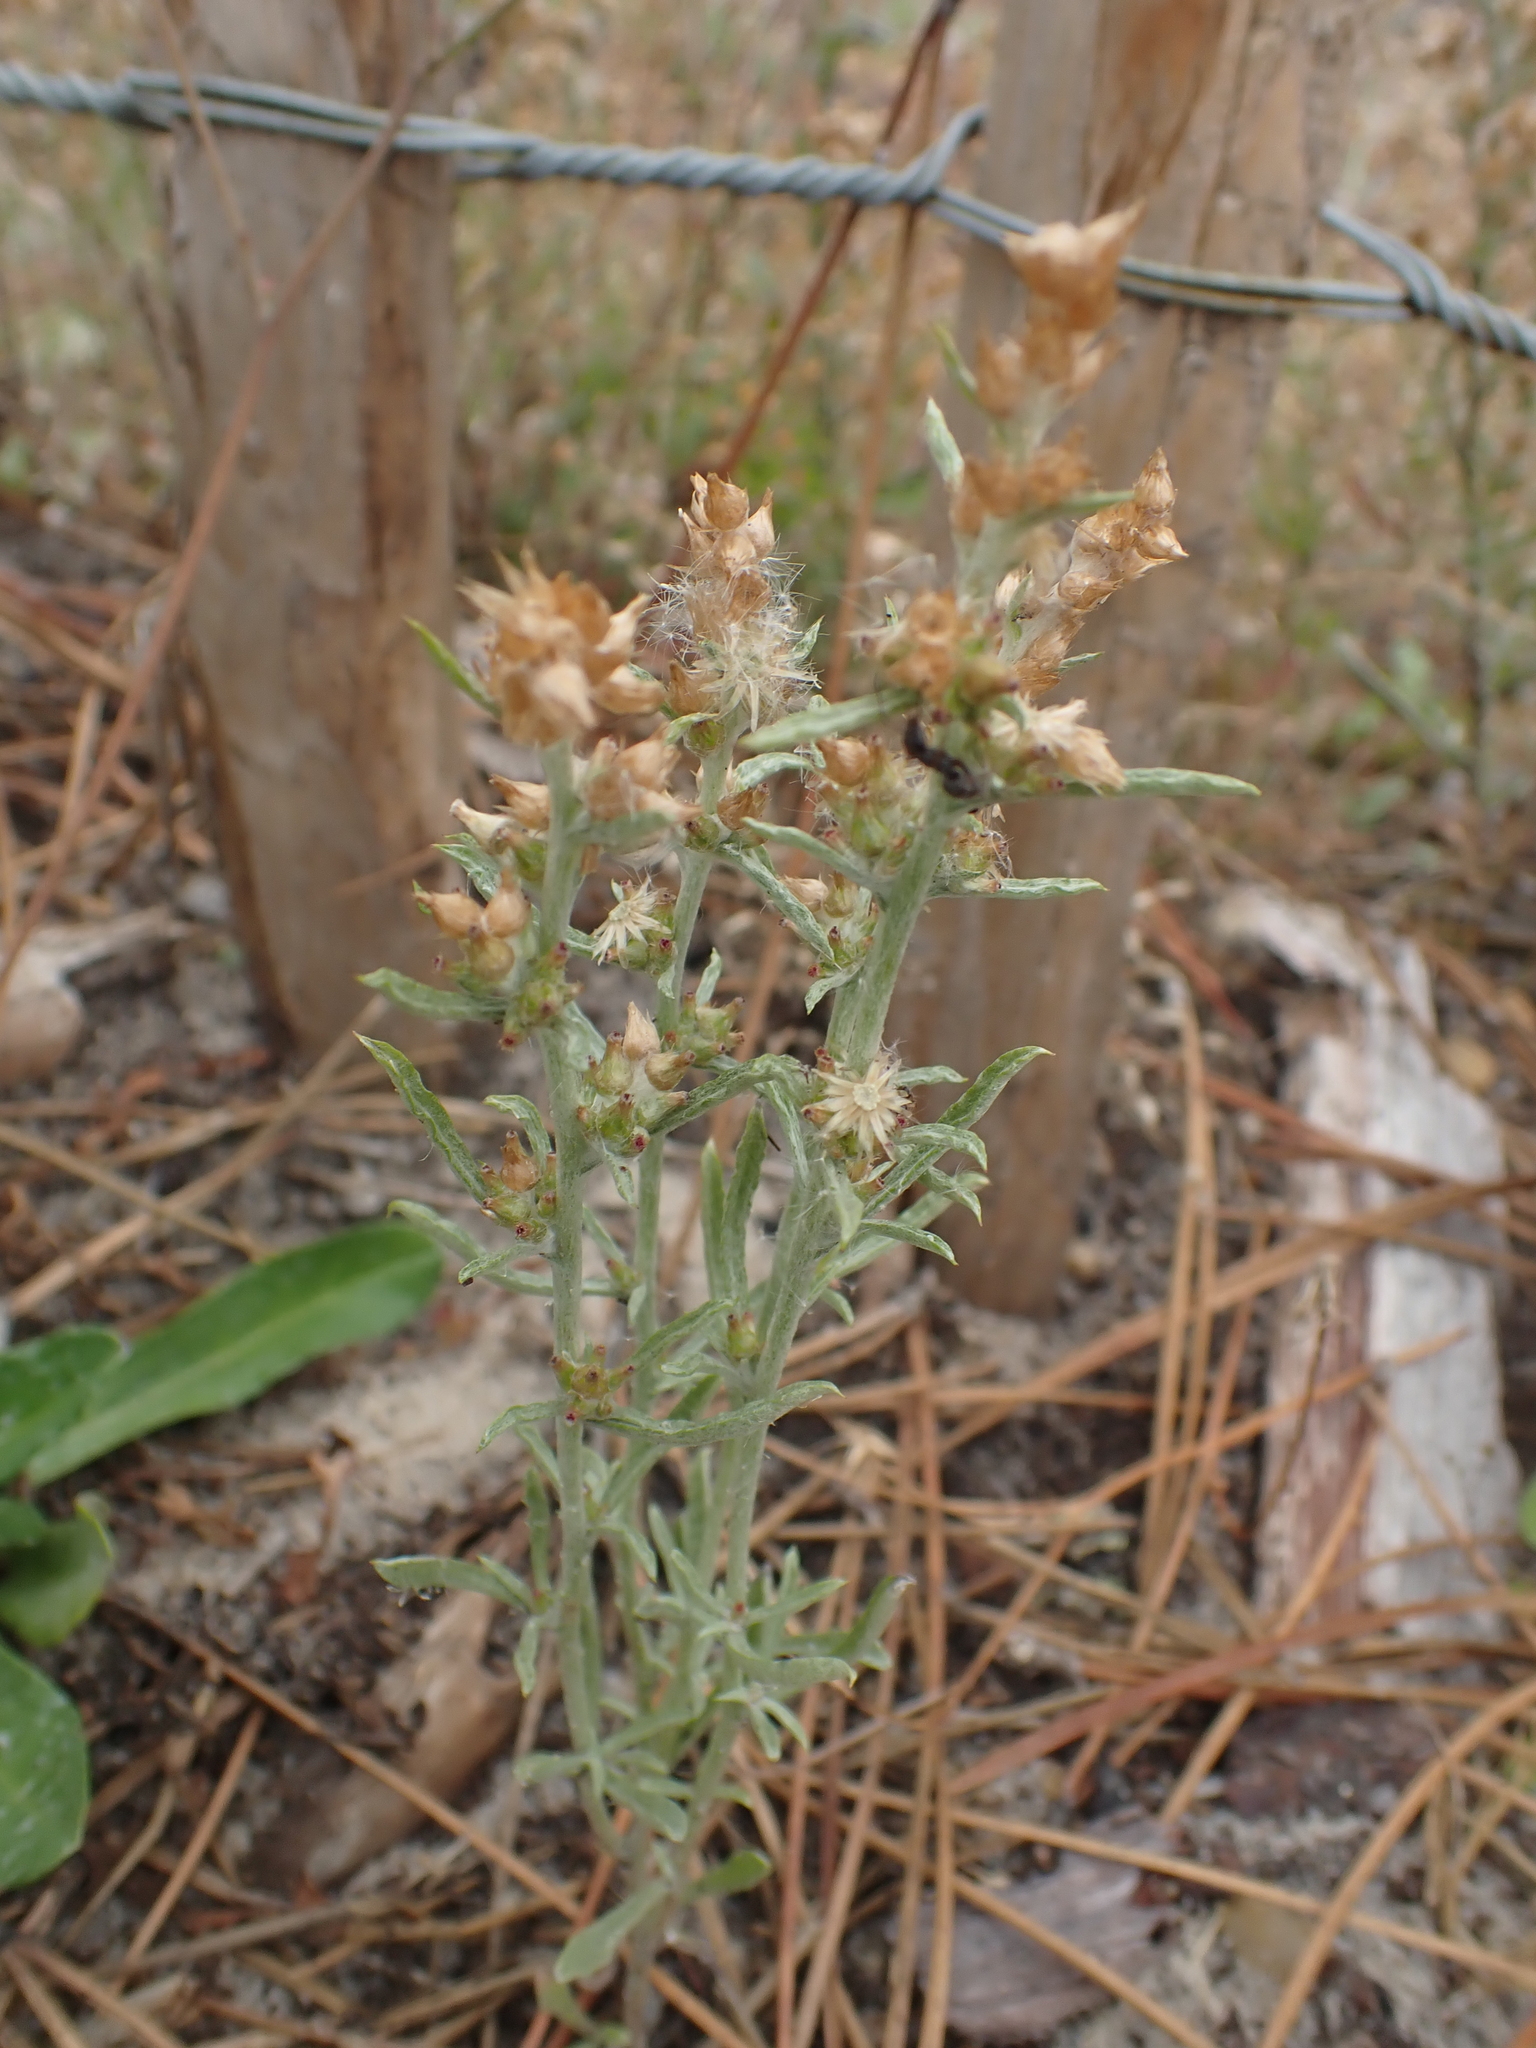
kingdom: Plantae
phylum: Tracheophyta
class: Magnoliopsida
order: Lamiales
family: Plantaginaceae
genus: Plantago
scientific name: Plantago arenaria
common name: Branched plantain
